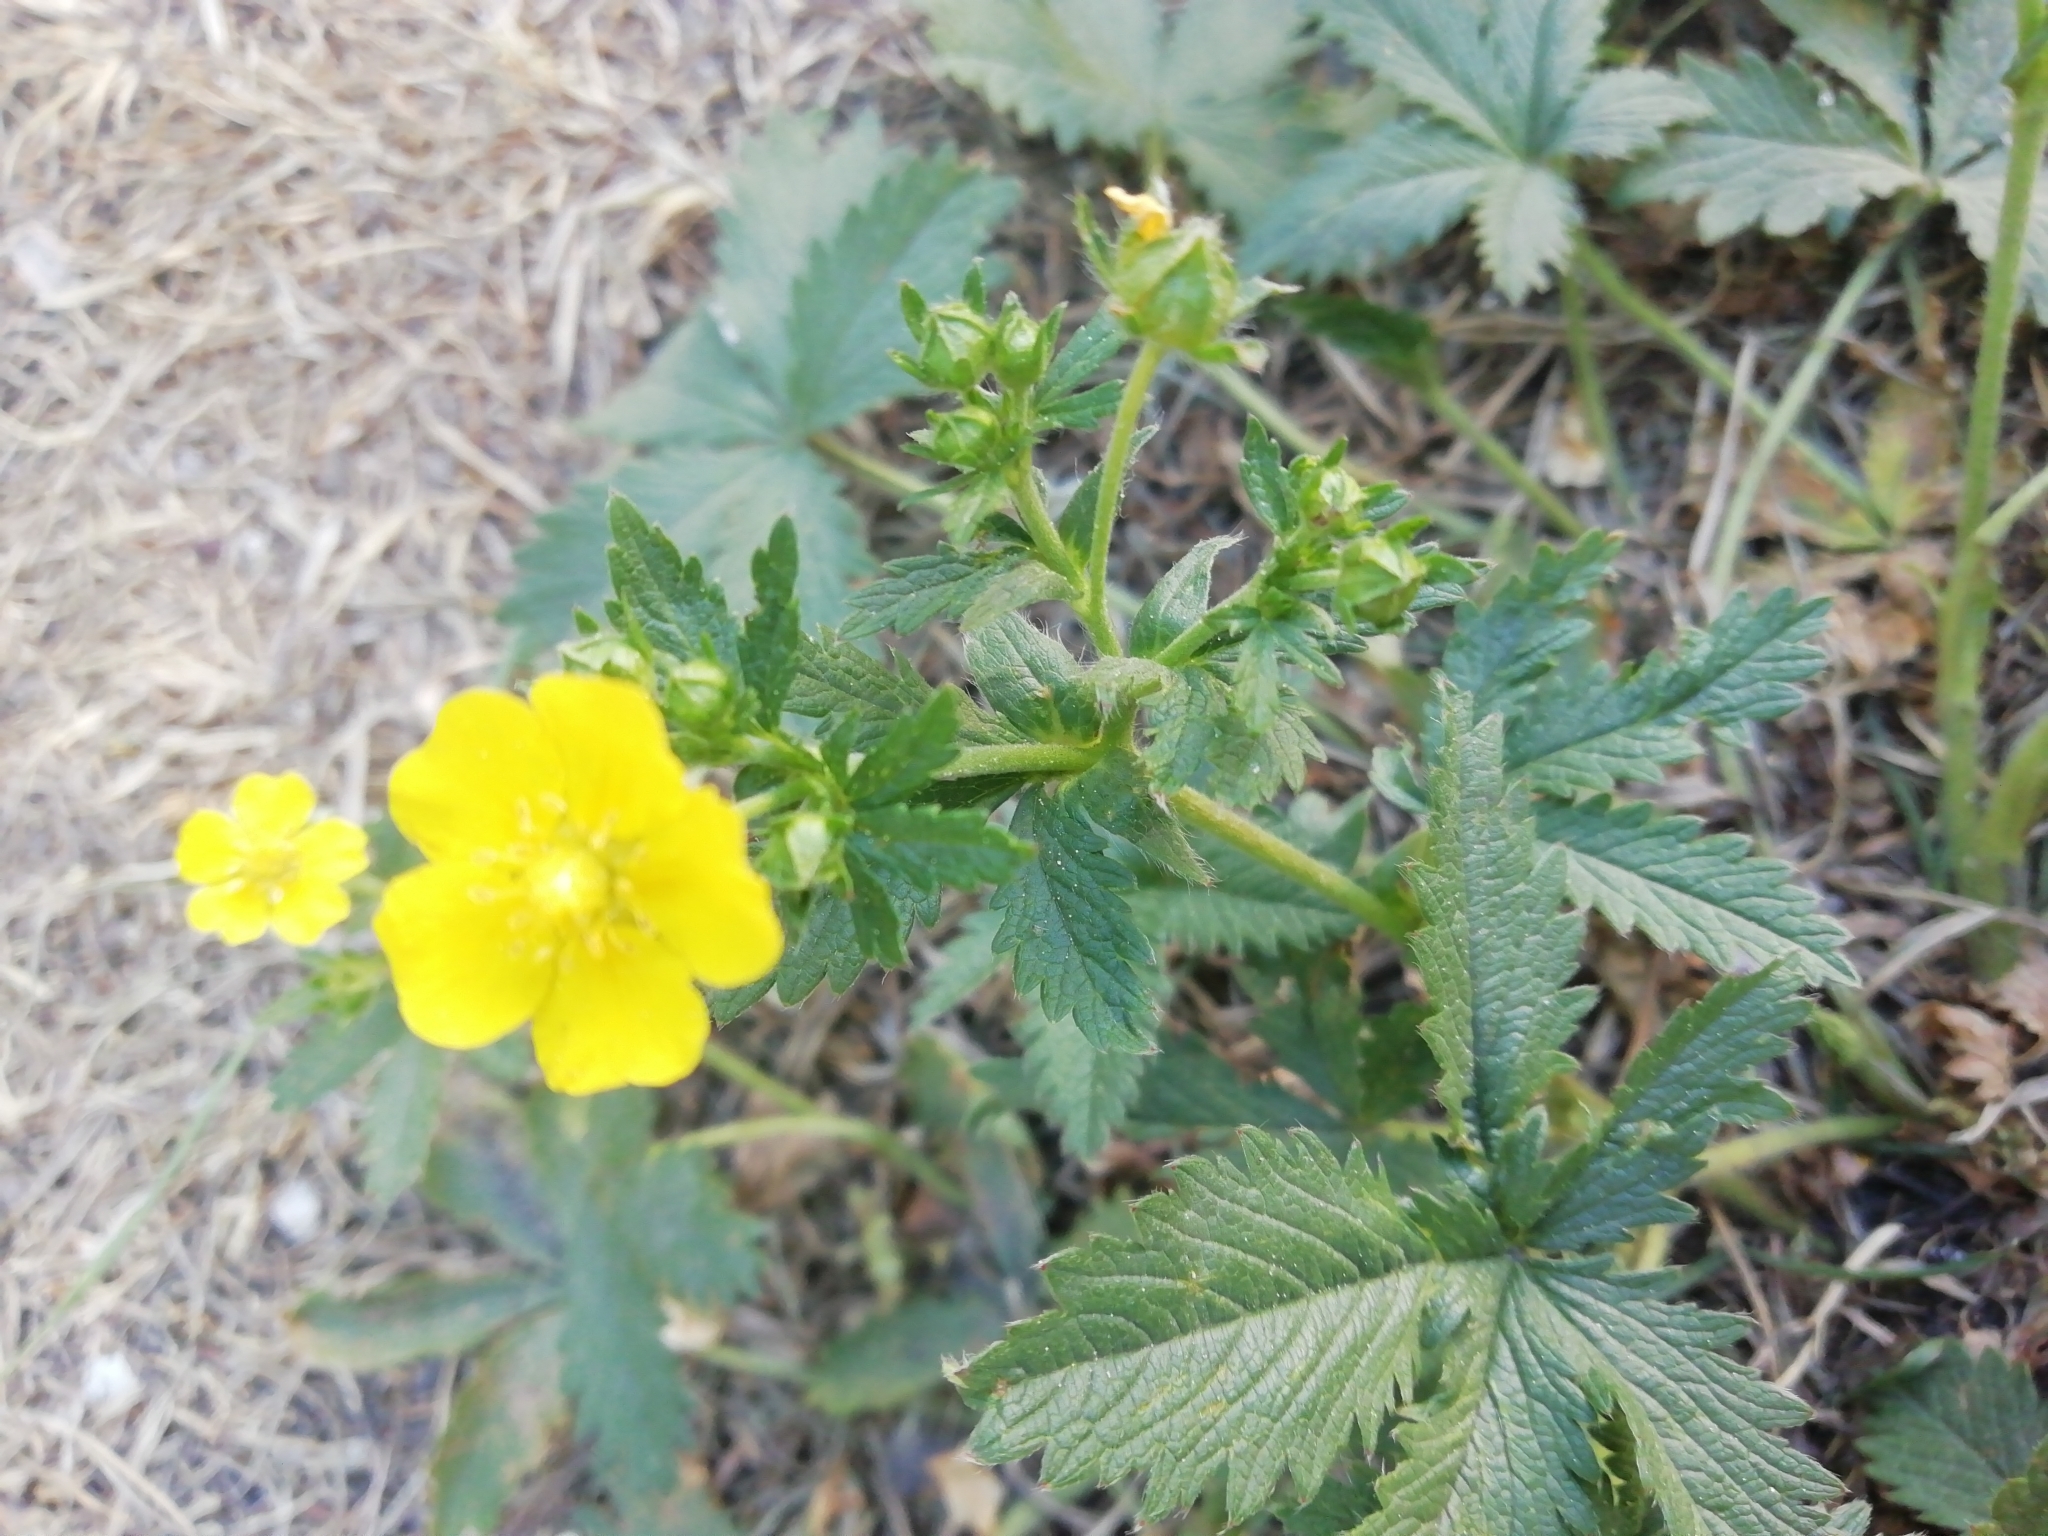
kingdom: Plantae
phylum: Tracheophyta
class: Magnoliopsida
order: Rosales
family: Rosaceae
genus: Potentilla
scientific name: Potentilla chrysantha
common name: Thuringian cinquefoil
